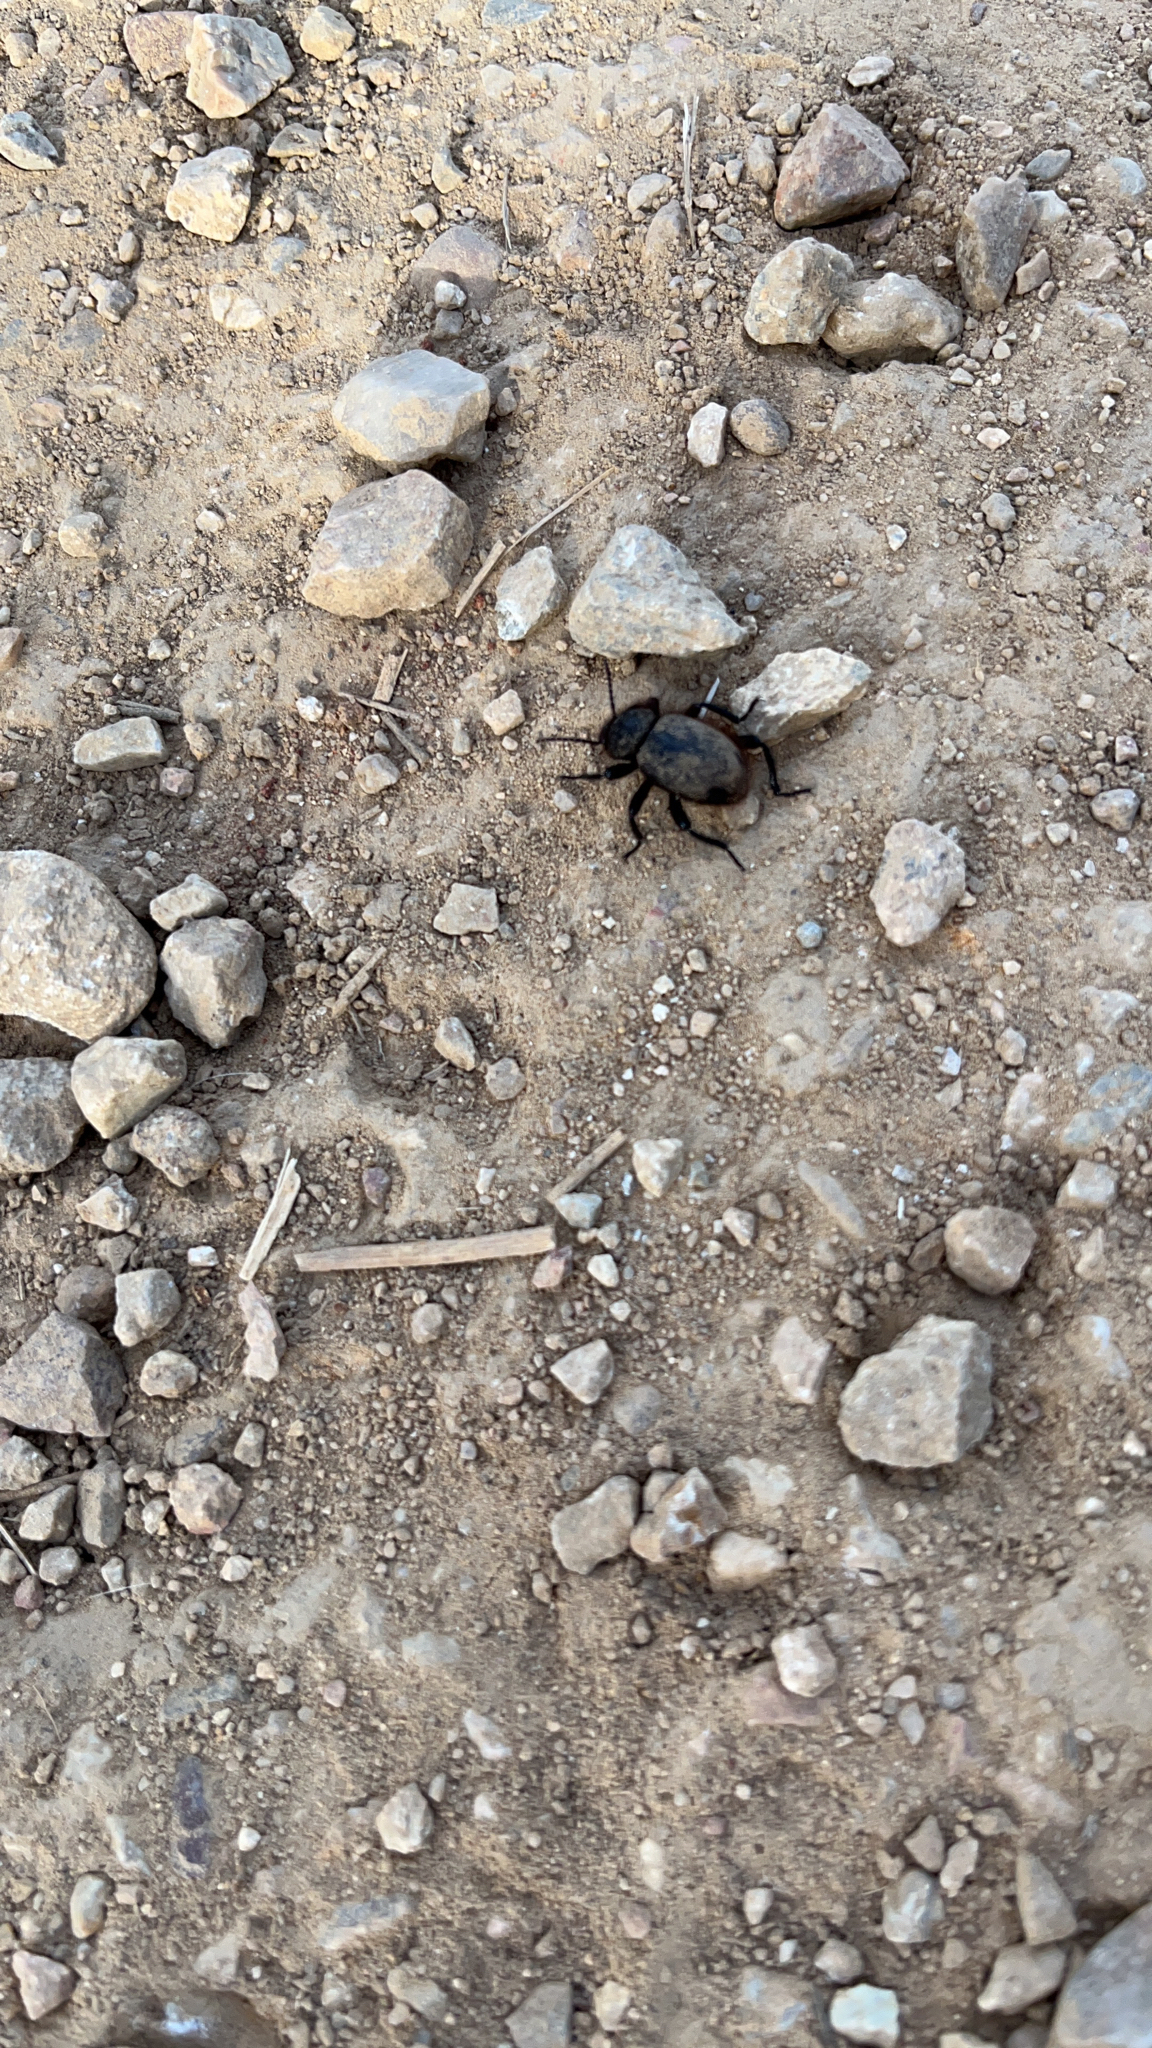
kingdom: Animalia
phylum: Arthropoda
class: Insecta
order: Coleoptera
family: Tenebrionidae
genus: Eleodes
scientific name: Eleodes osculans
